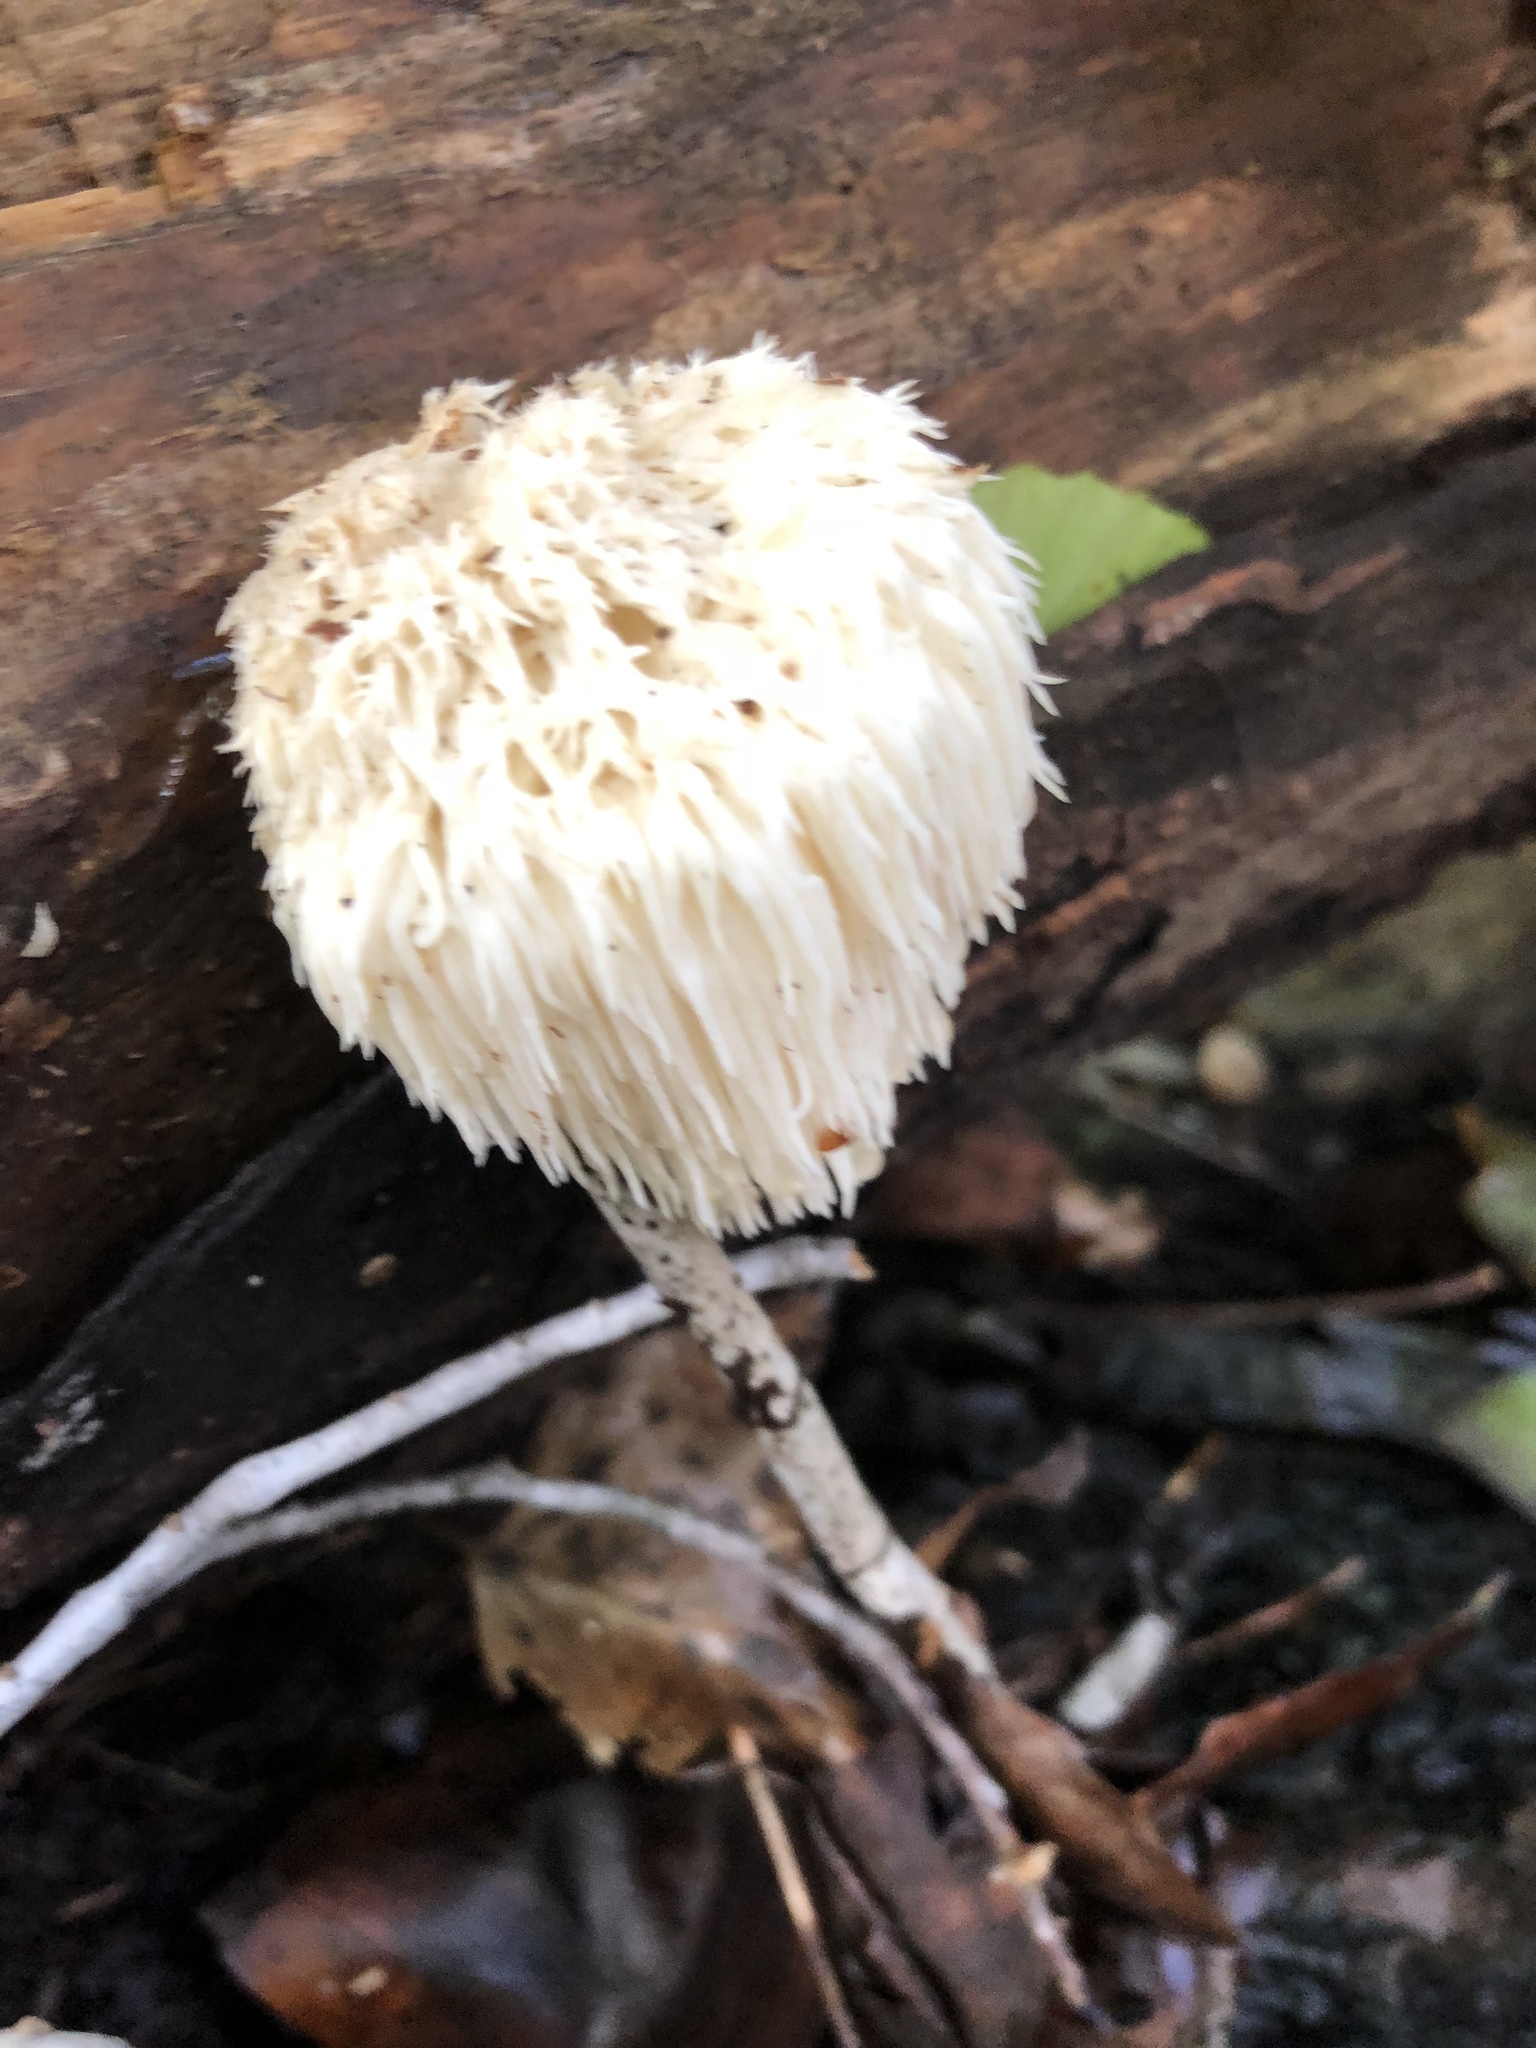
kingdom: Fungi
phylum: Basidiomycota
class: Agaricomycetes
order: Russulales
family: Hericiaceae
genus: Hericium
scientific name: Hericium erinaceus
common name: Bearded tooth
